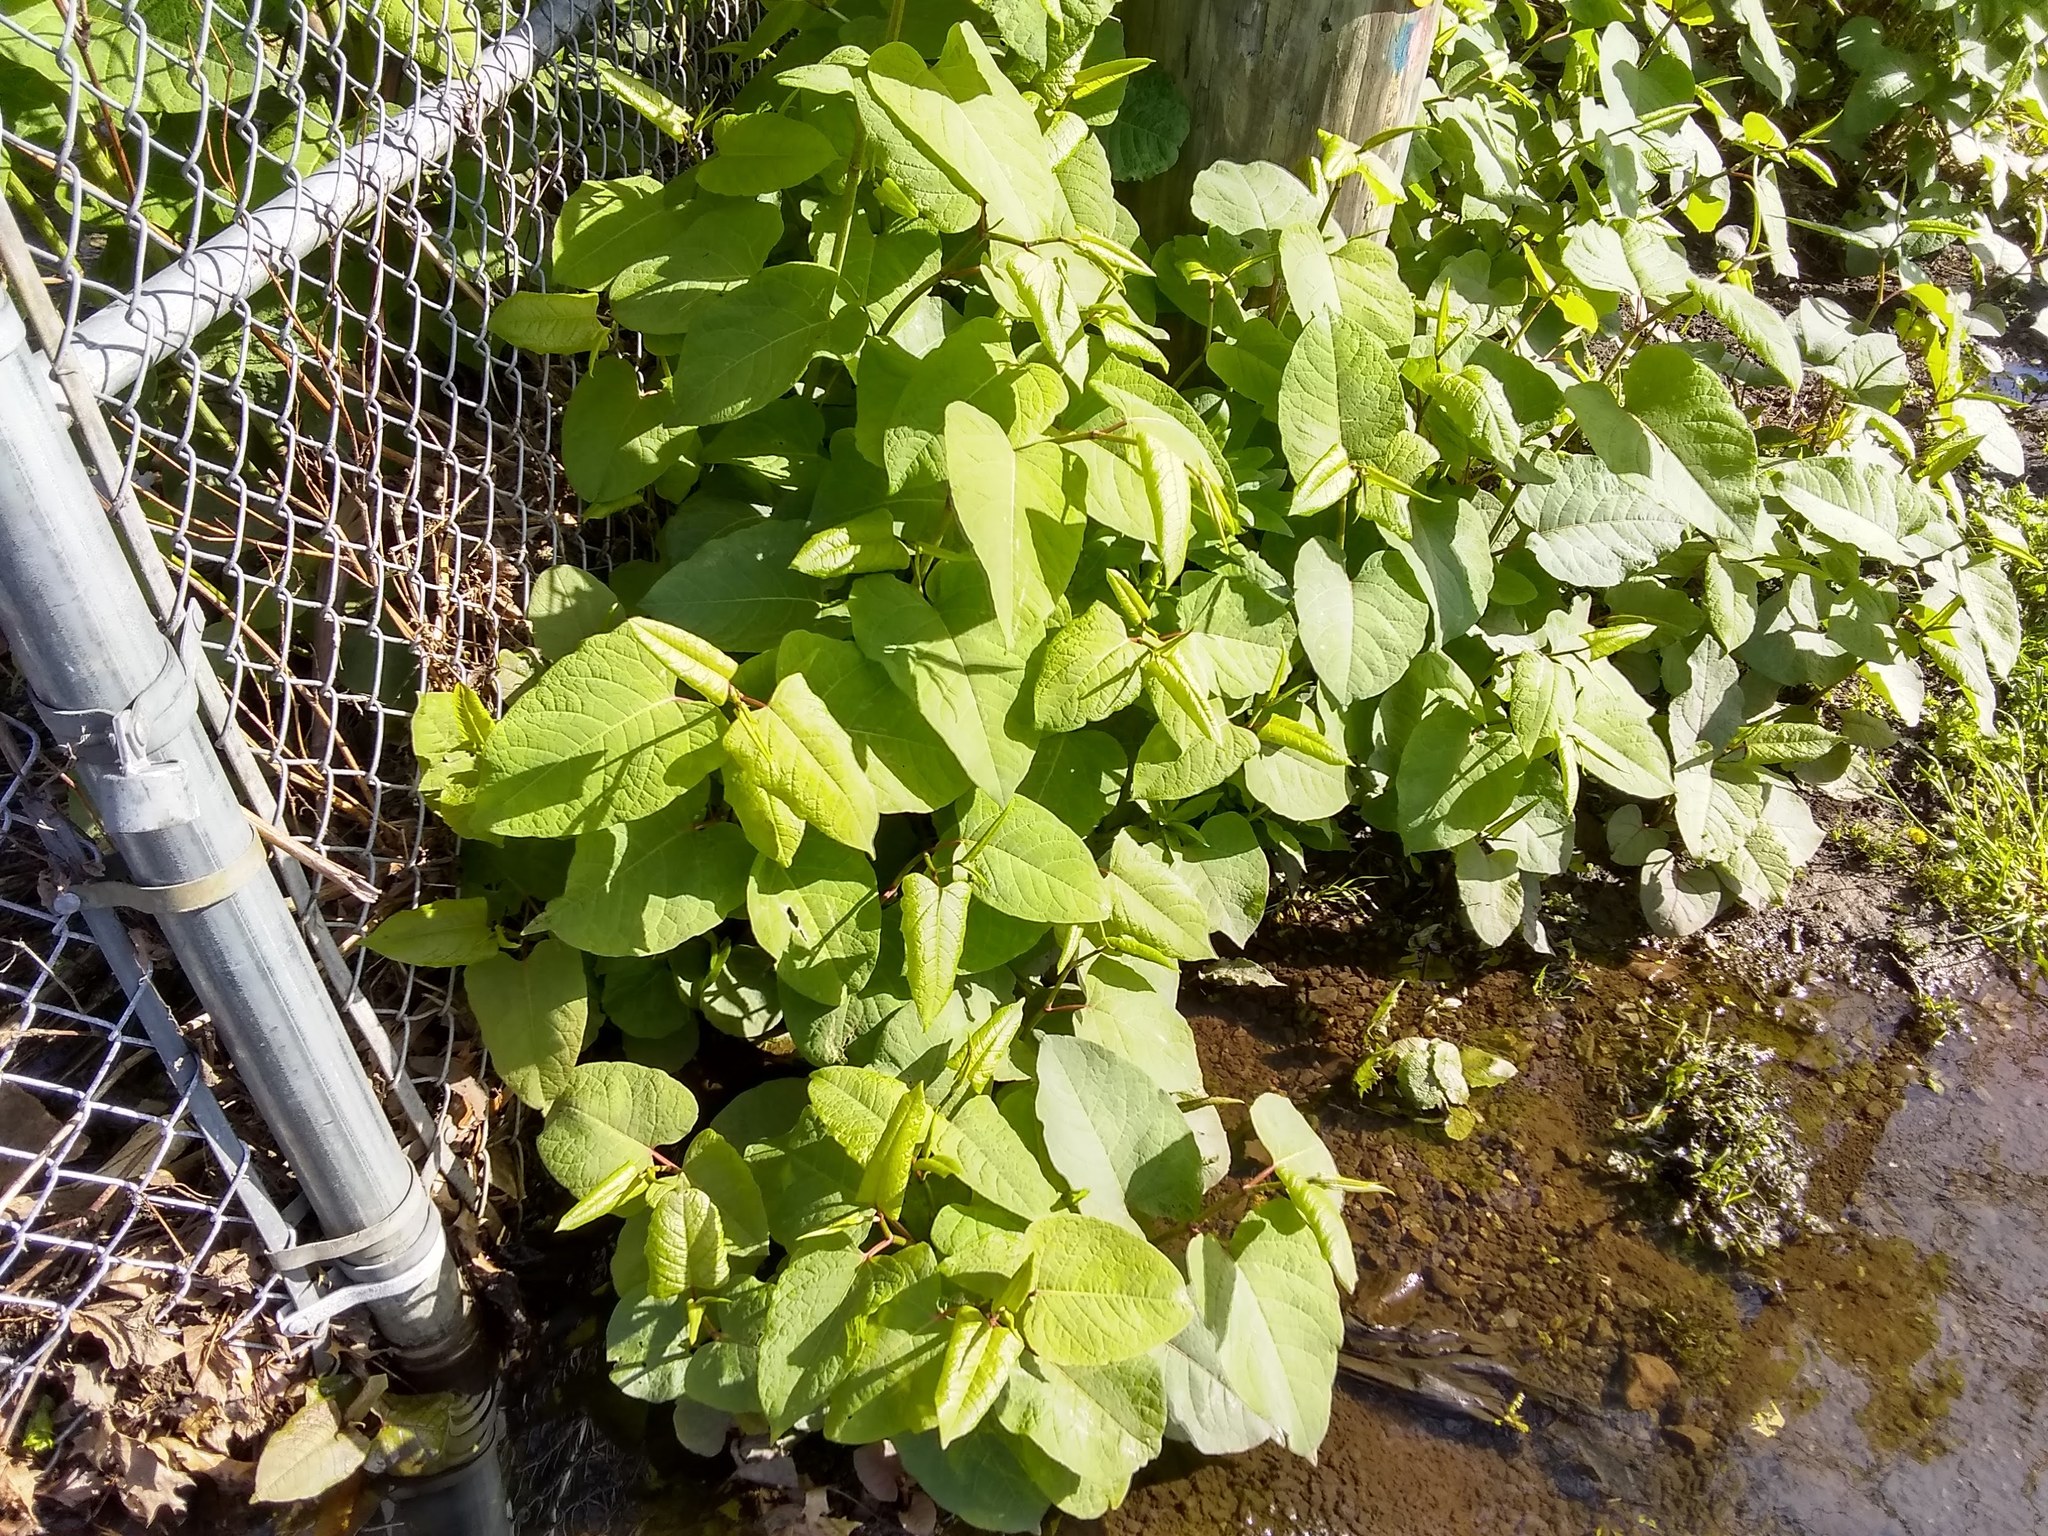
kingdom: Plantae
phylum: Tracheophyta
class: Magnoliopsida
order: Caryophyllales
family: Polygonaceae
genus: Reynoutria
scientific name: Reynoutria bohemica
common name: Bohemian knotweed
